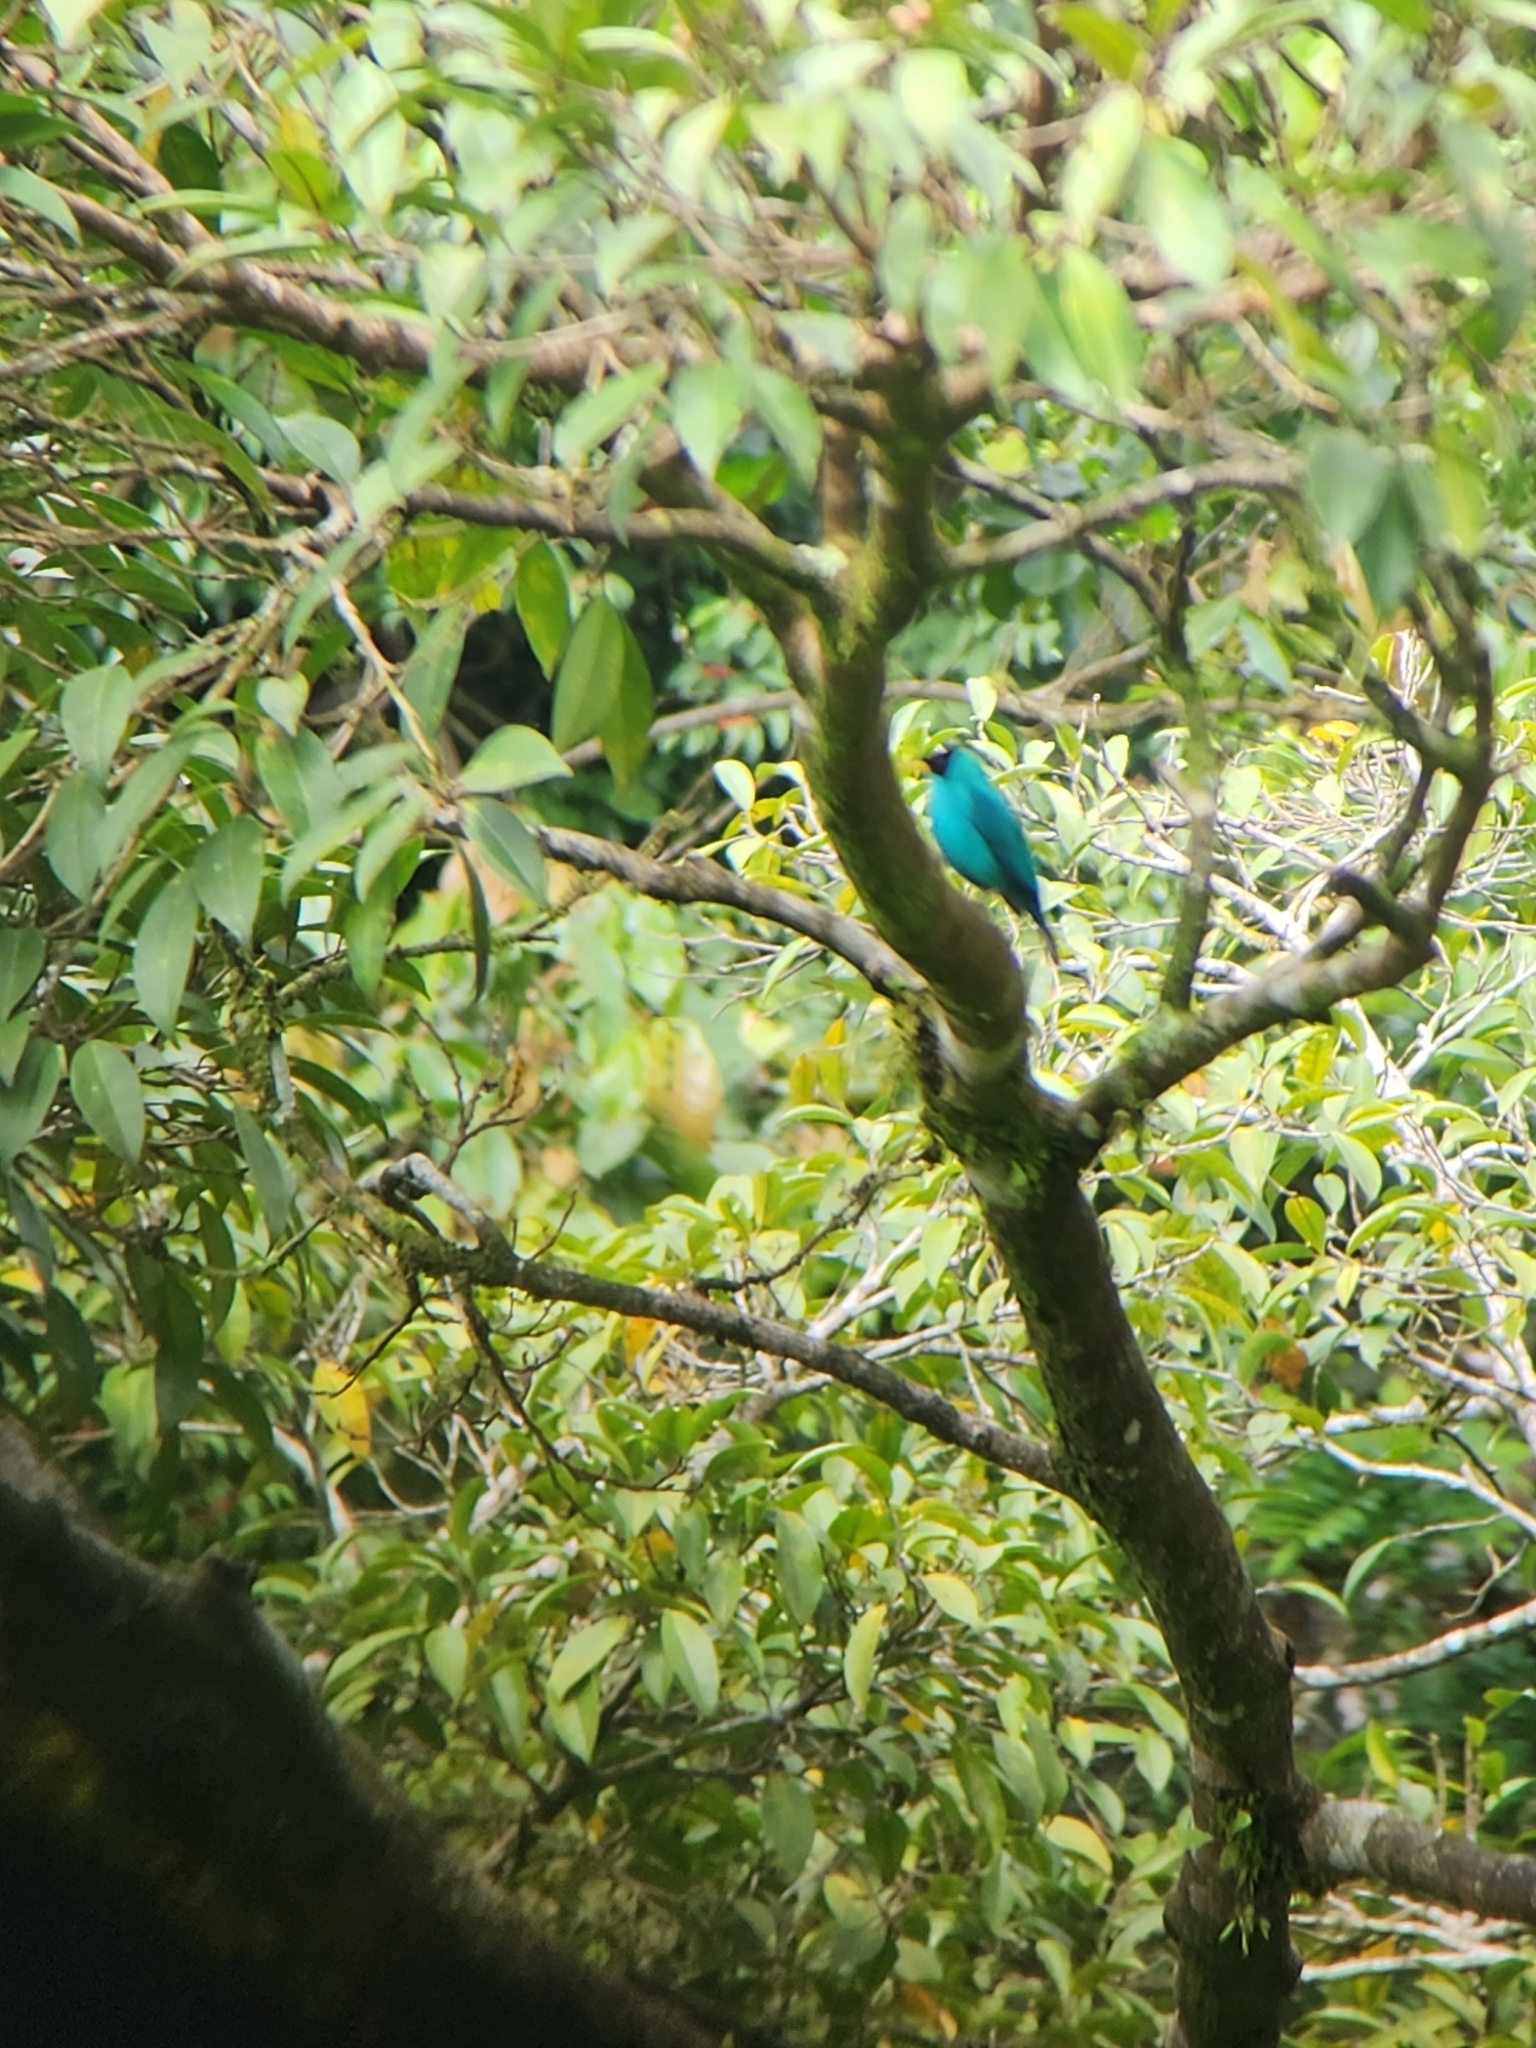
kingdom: Animalia
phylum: Chordata
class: Aves
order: Passeriformes
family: Thraupidae
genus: Chlorophanes
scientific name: Chlorophanes spiza
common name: Green honeycreeper
